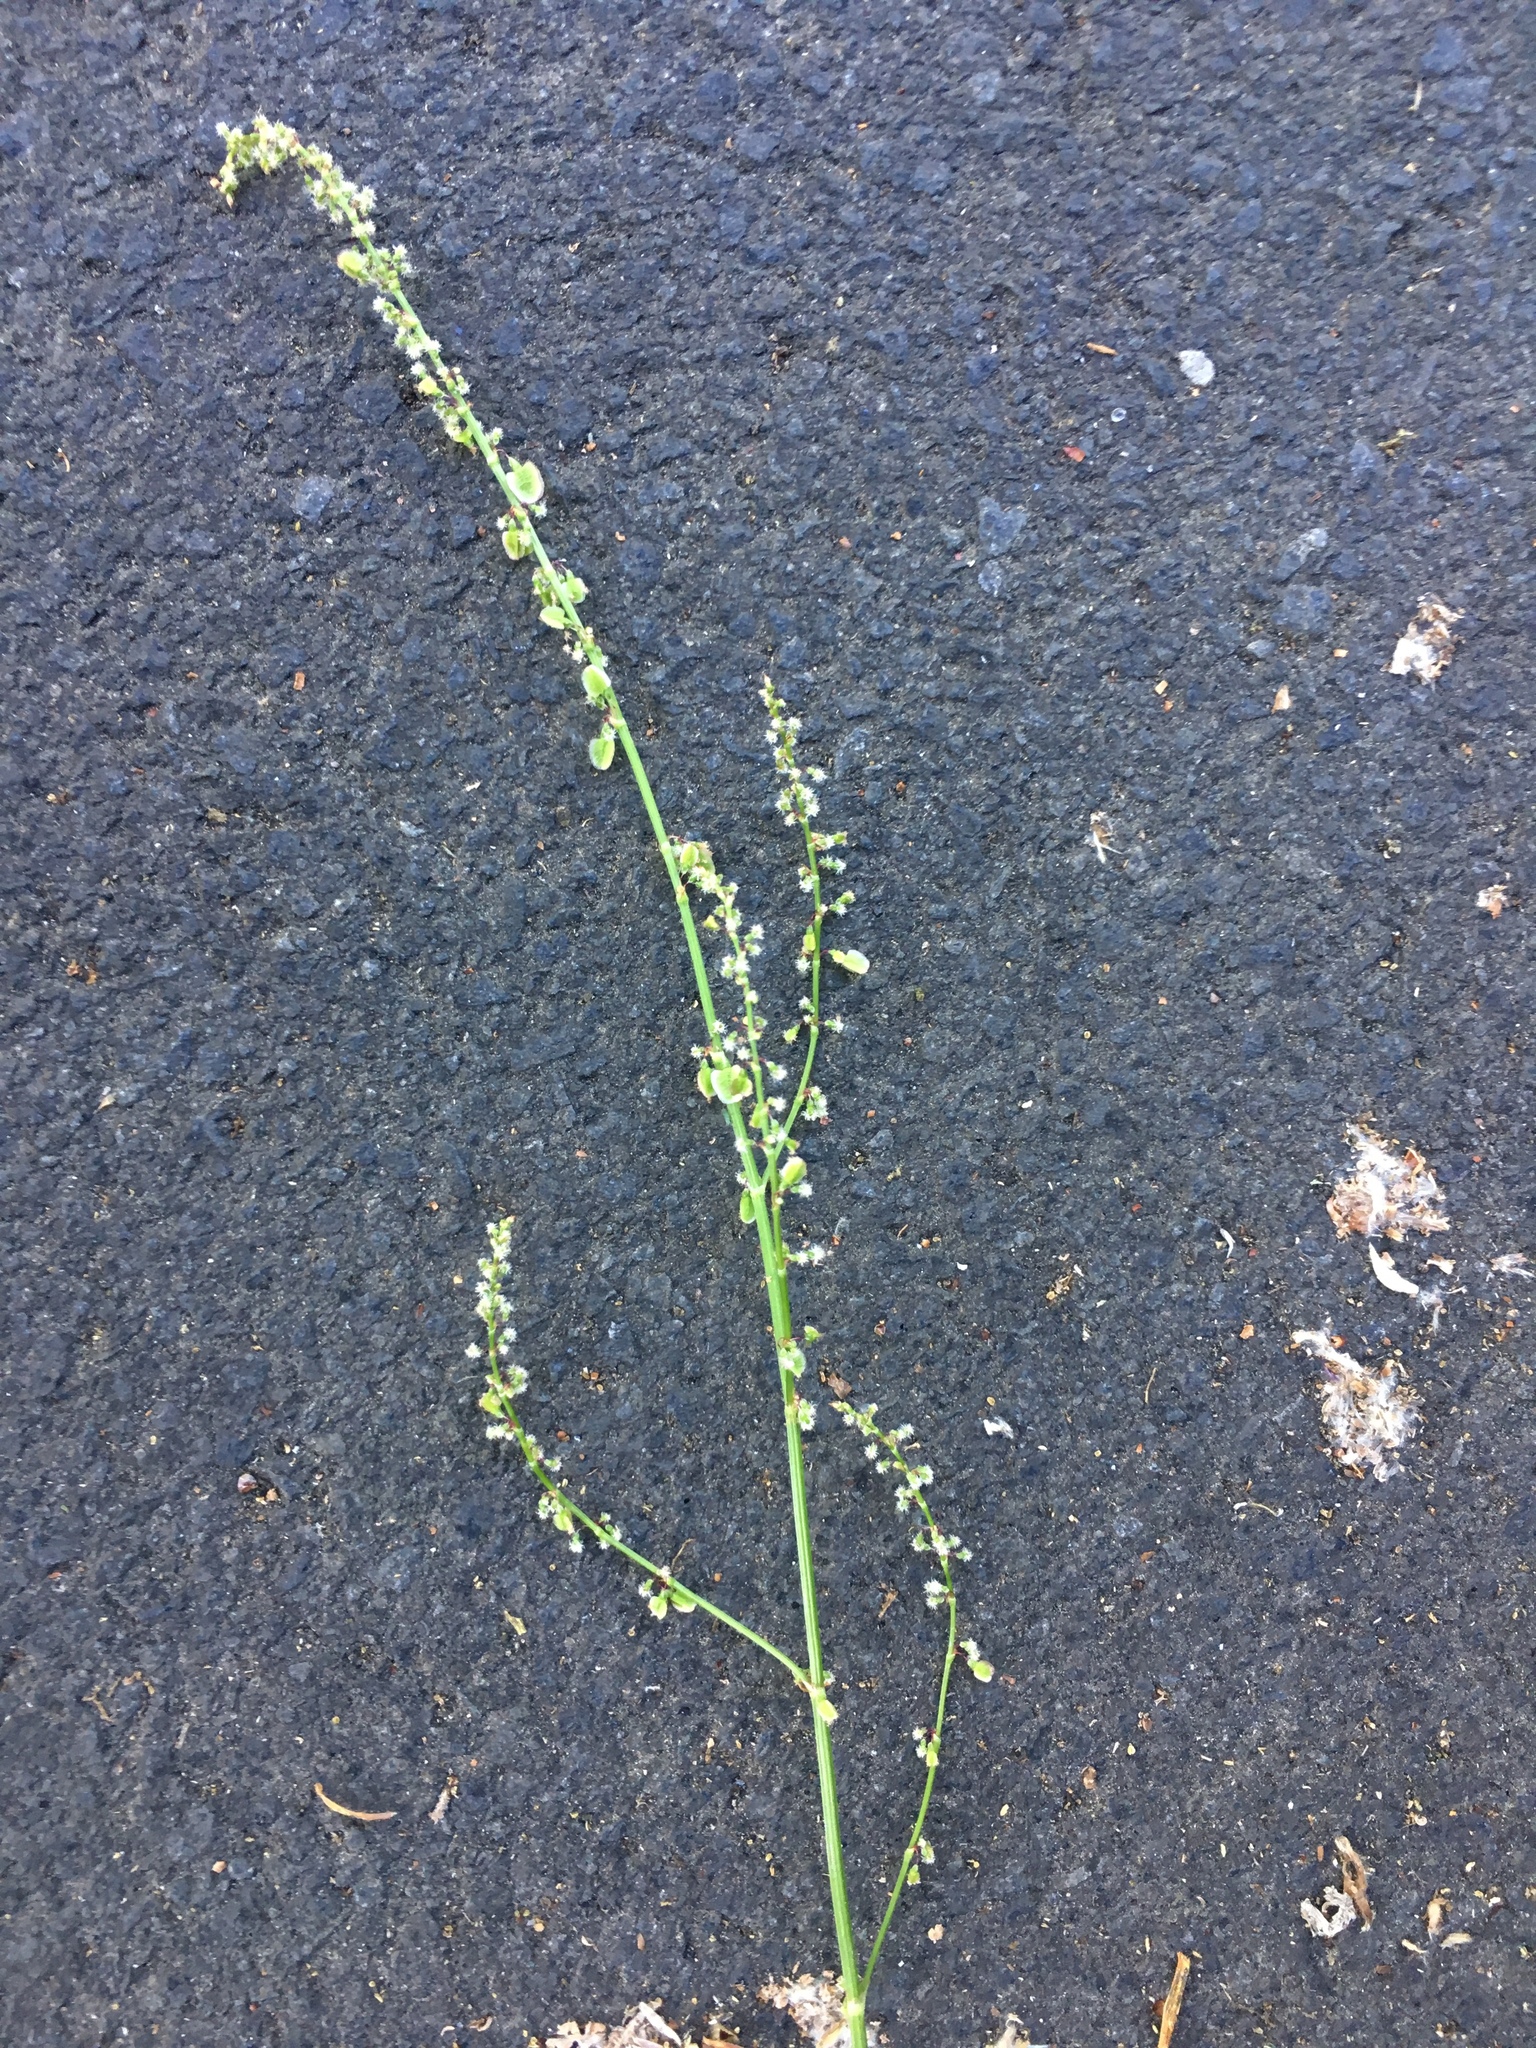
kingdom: Plantae
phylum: Tracheophyta
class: Magnoliopsida
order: Caryophyllales
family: Polygonaceae
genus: Rumex
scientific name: Rumex acetosa
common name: Garden sorrel
